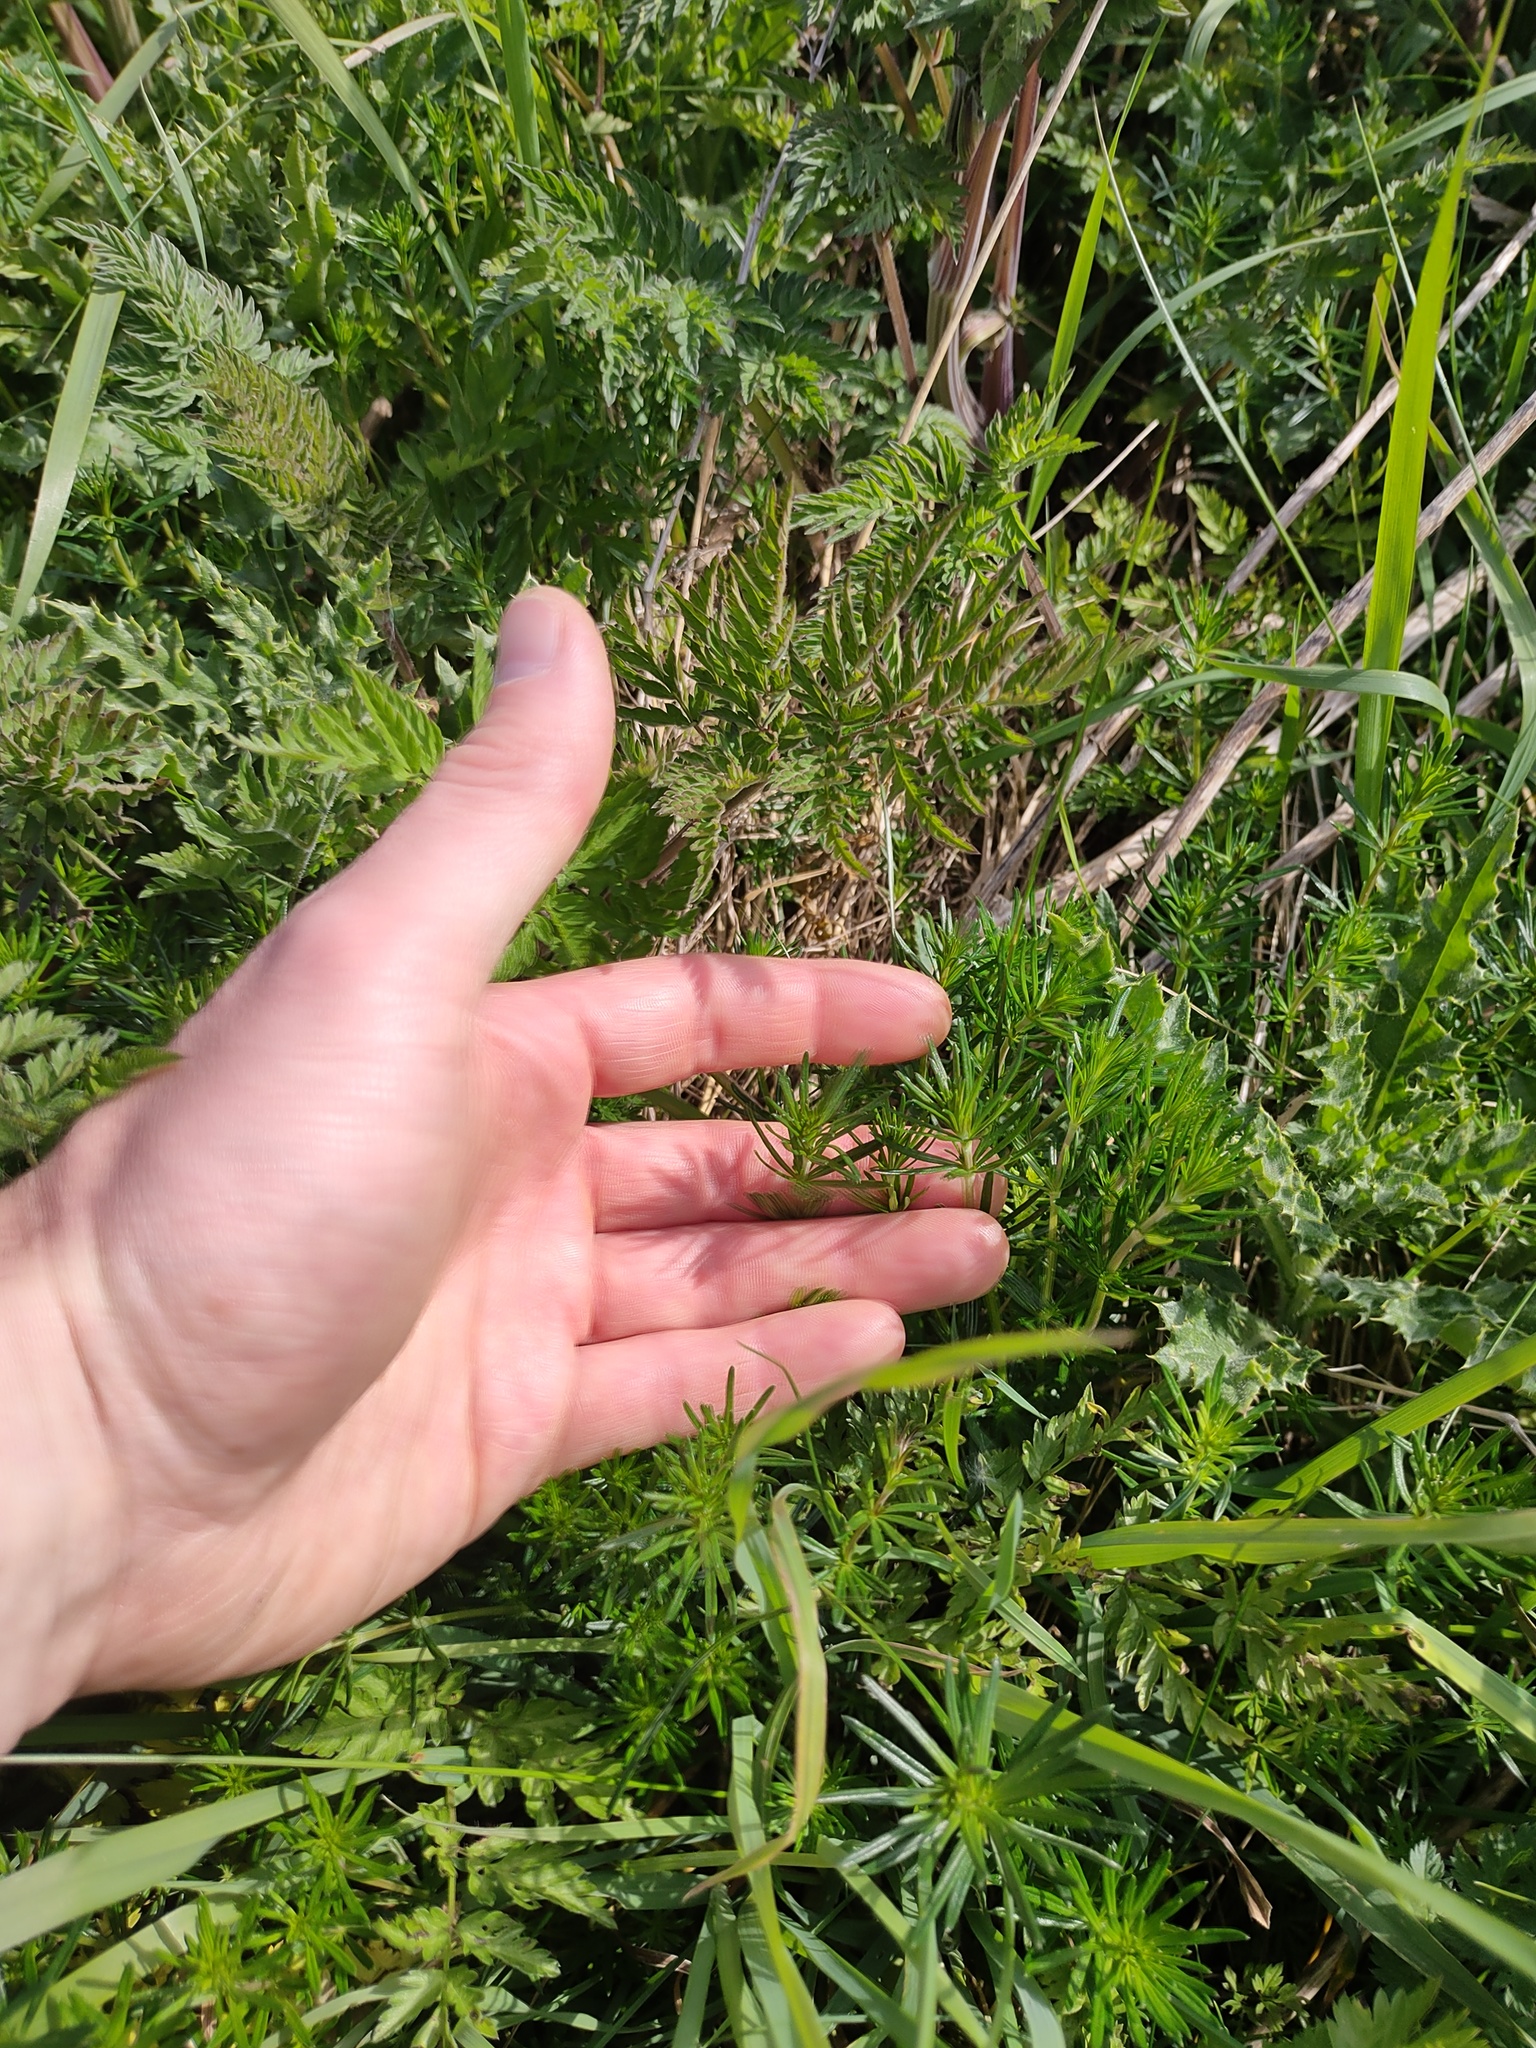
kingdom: Plantae
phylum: Tracheophyta
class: Magnoliopsida
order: Gentianales
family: Rubiaceae
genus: Galium
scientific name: Galium verum
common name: Lady's bedstraw
